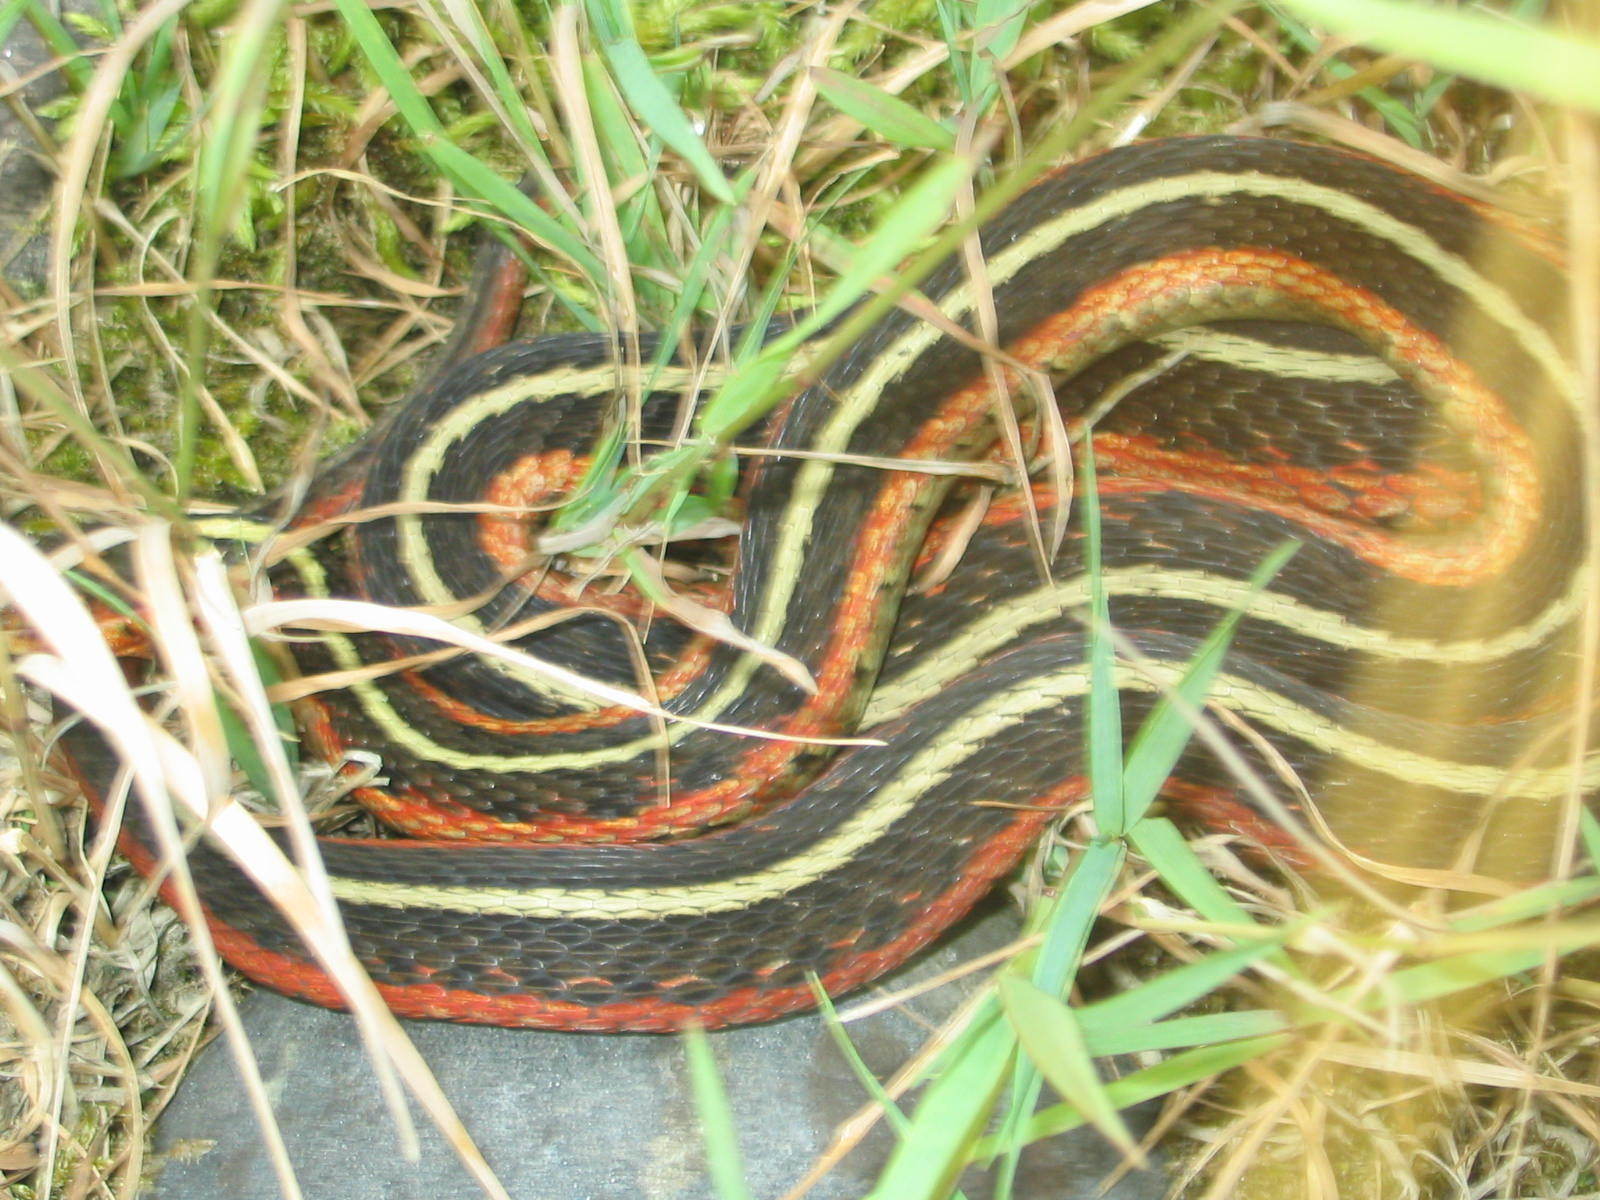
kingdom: Animalia
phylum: Chordata
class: Squamata
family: Colubridae
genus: Thamnophis
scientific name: Thamnophis sirtalis
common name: Common garter snake
